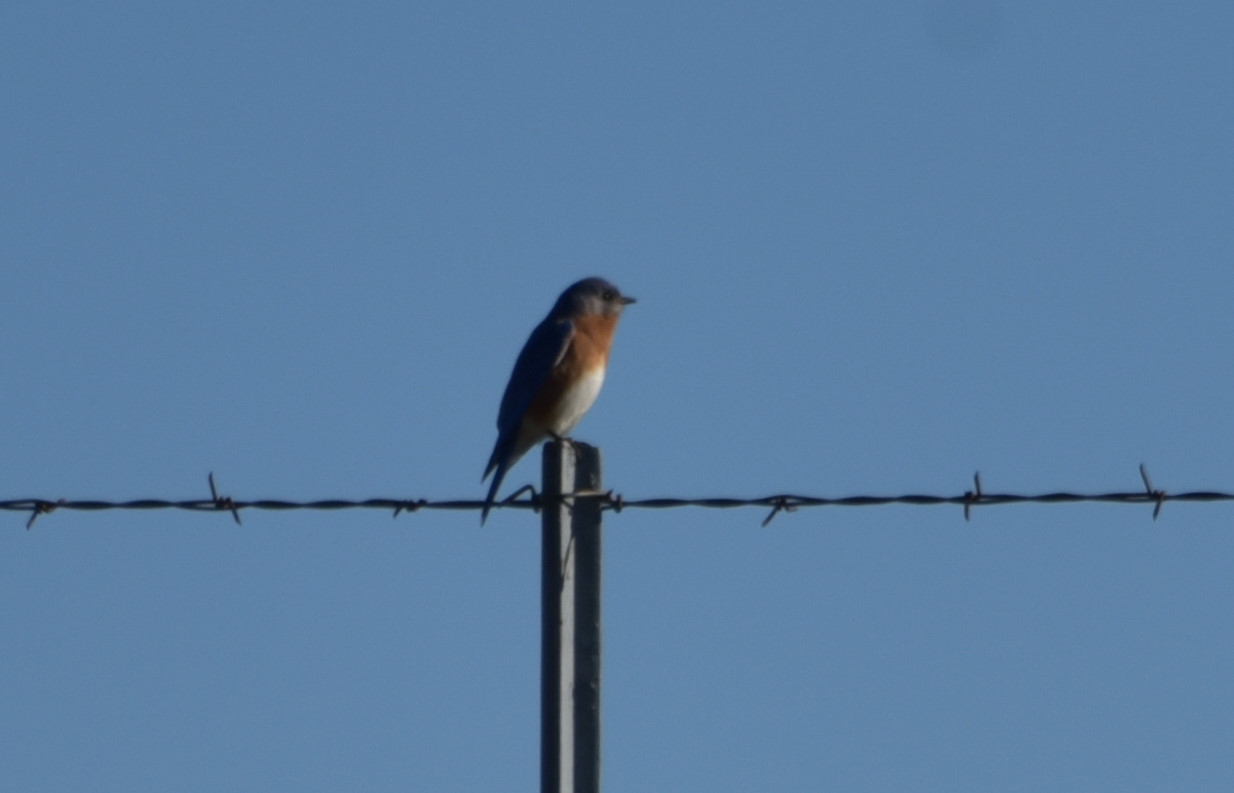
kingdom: Animalia
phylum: Chordata
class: Aves
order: Passeriformes
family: Turdidae
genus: Sialia
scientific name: Sialia sialis
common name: Eastern bluebird
